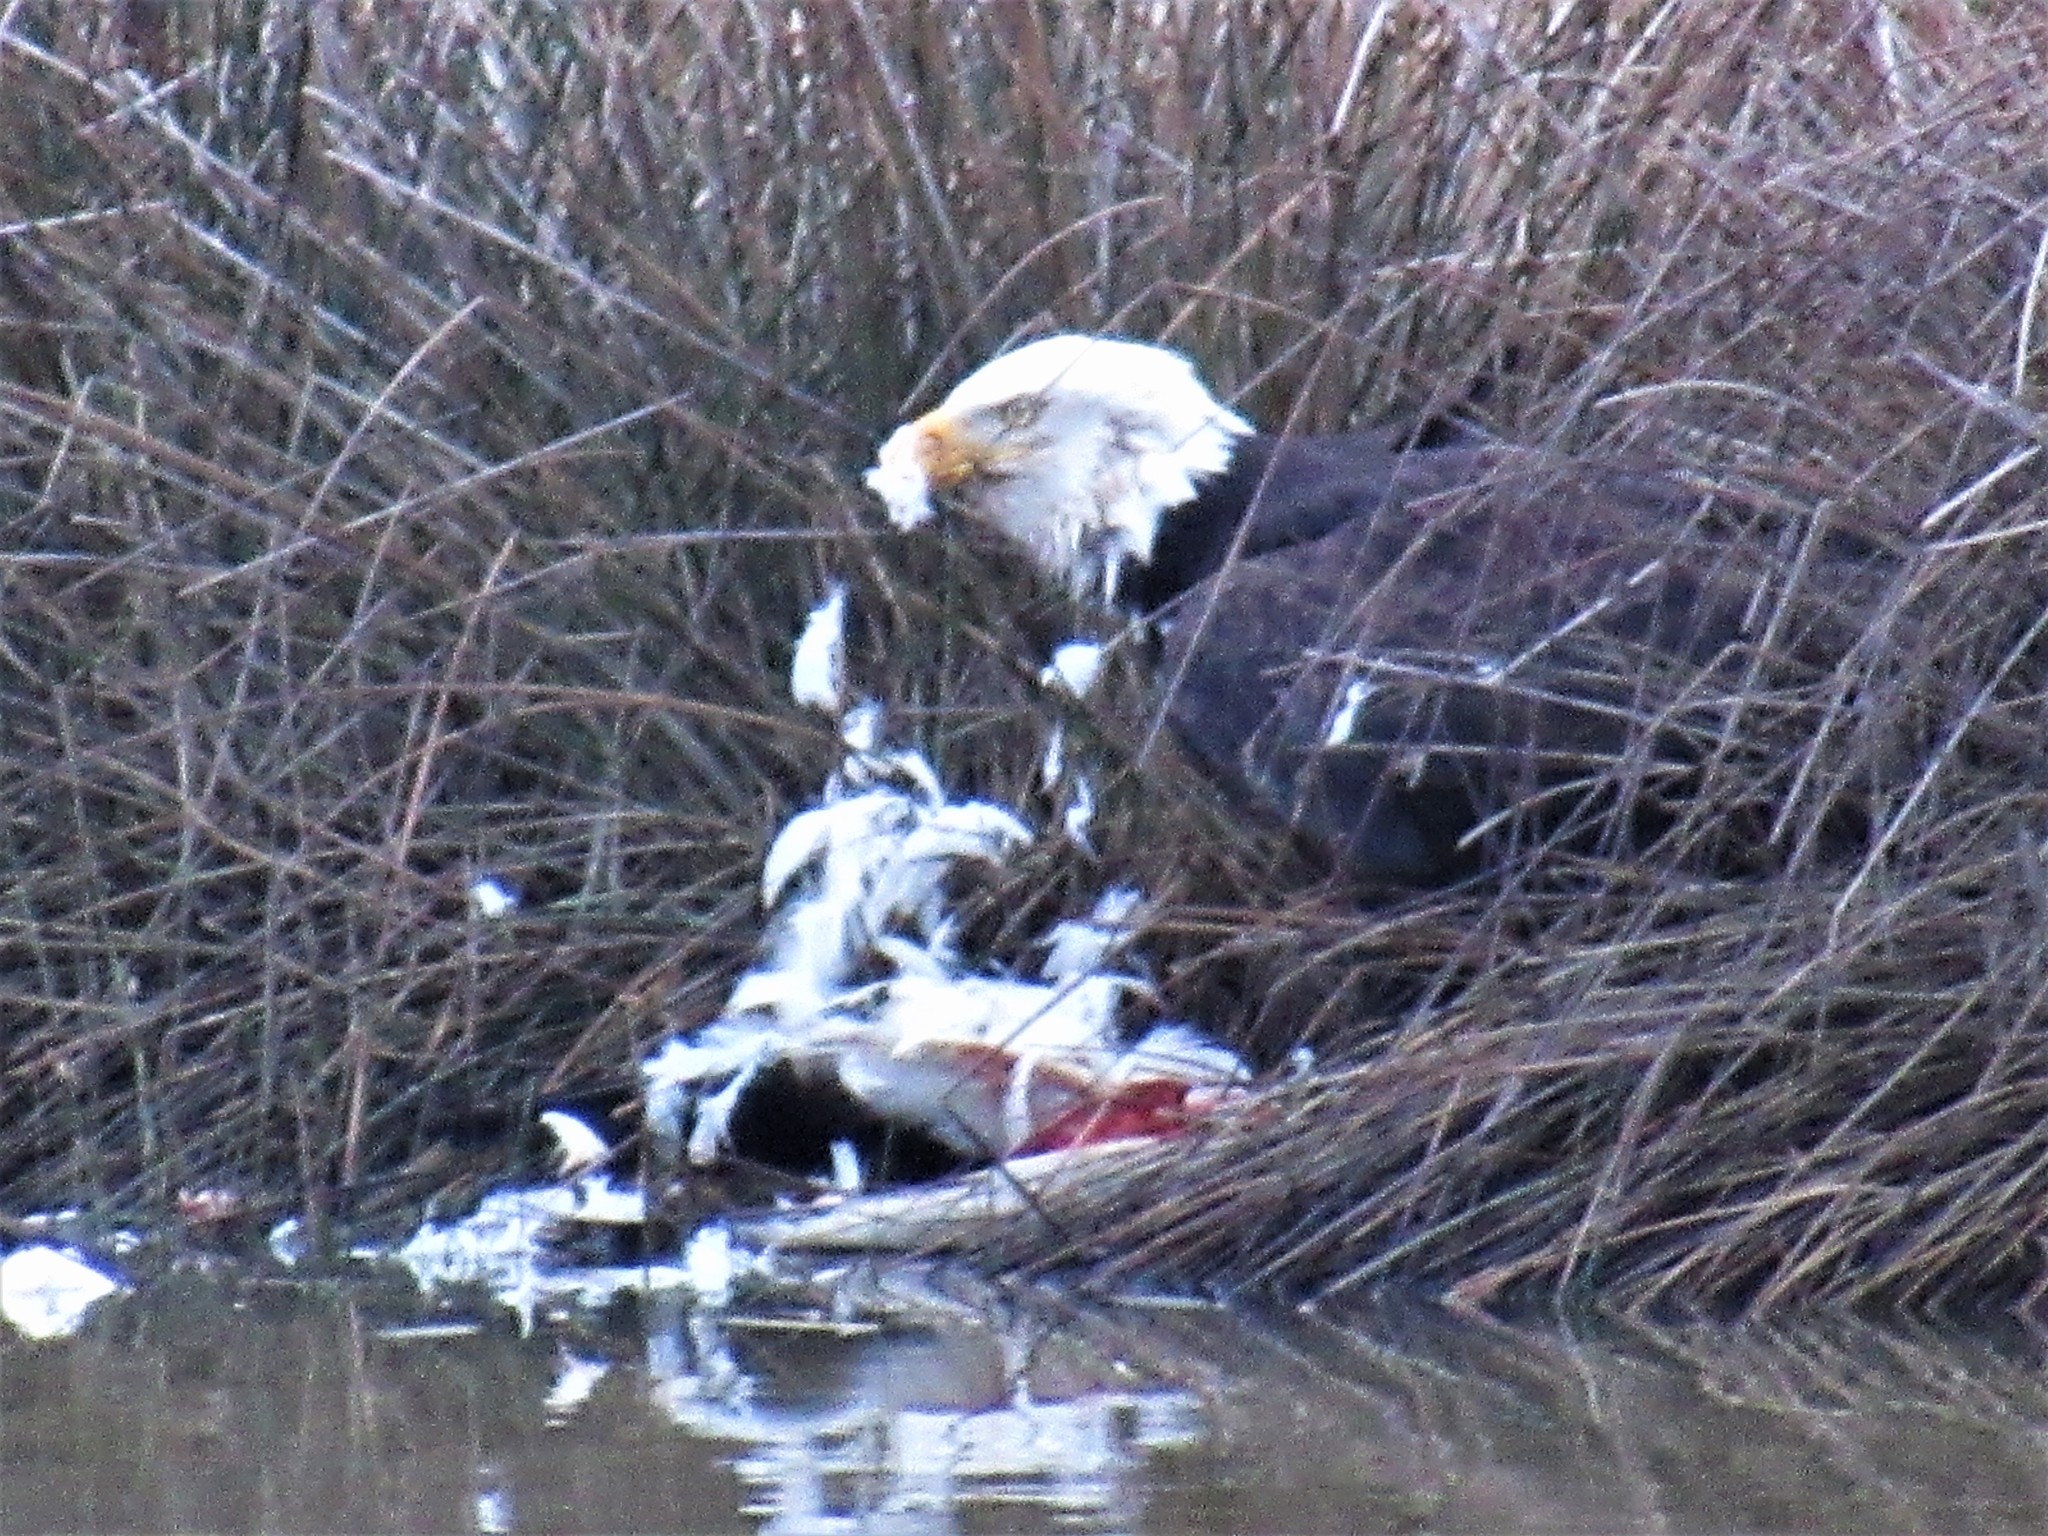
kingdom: Animalia
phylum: Chordata
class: Aves
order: Accipitriformes
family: Accipitridae
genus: Haliaeetus
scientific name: Haliaeetus leucocephalus
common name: Bald eagle
